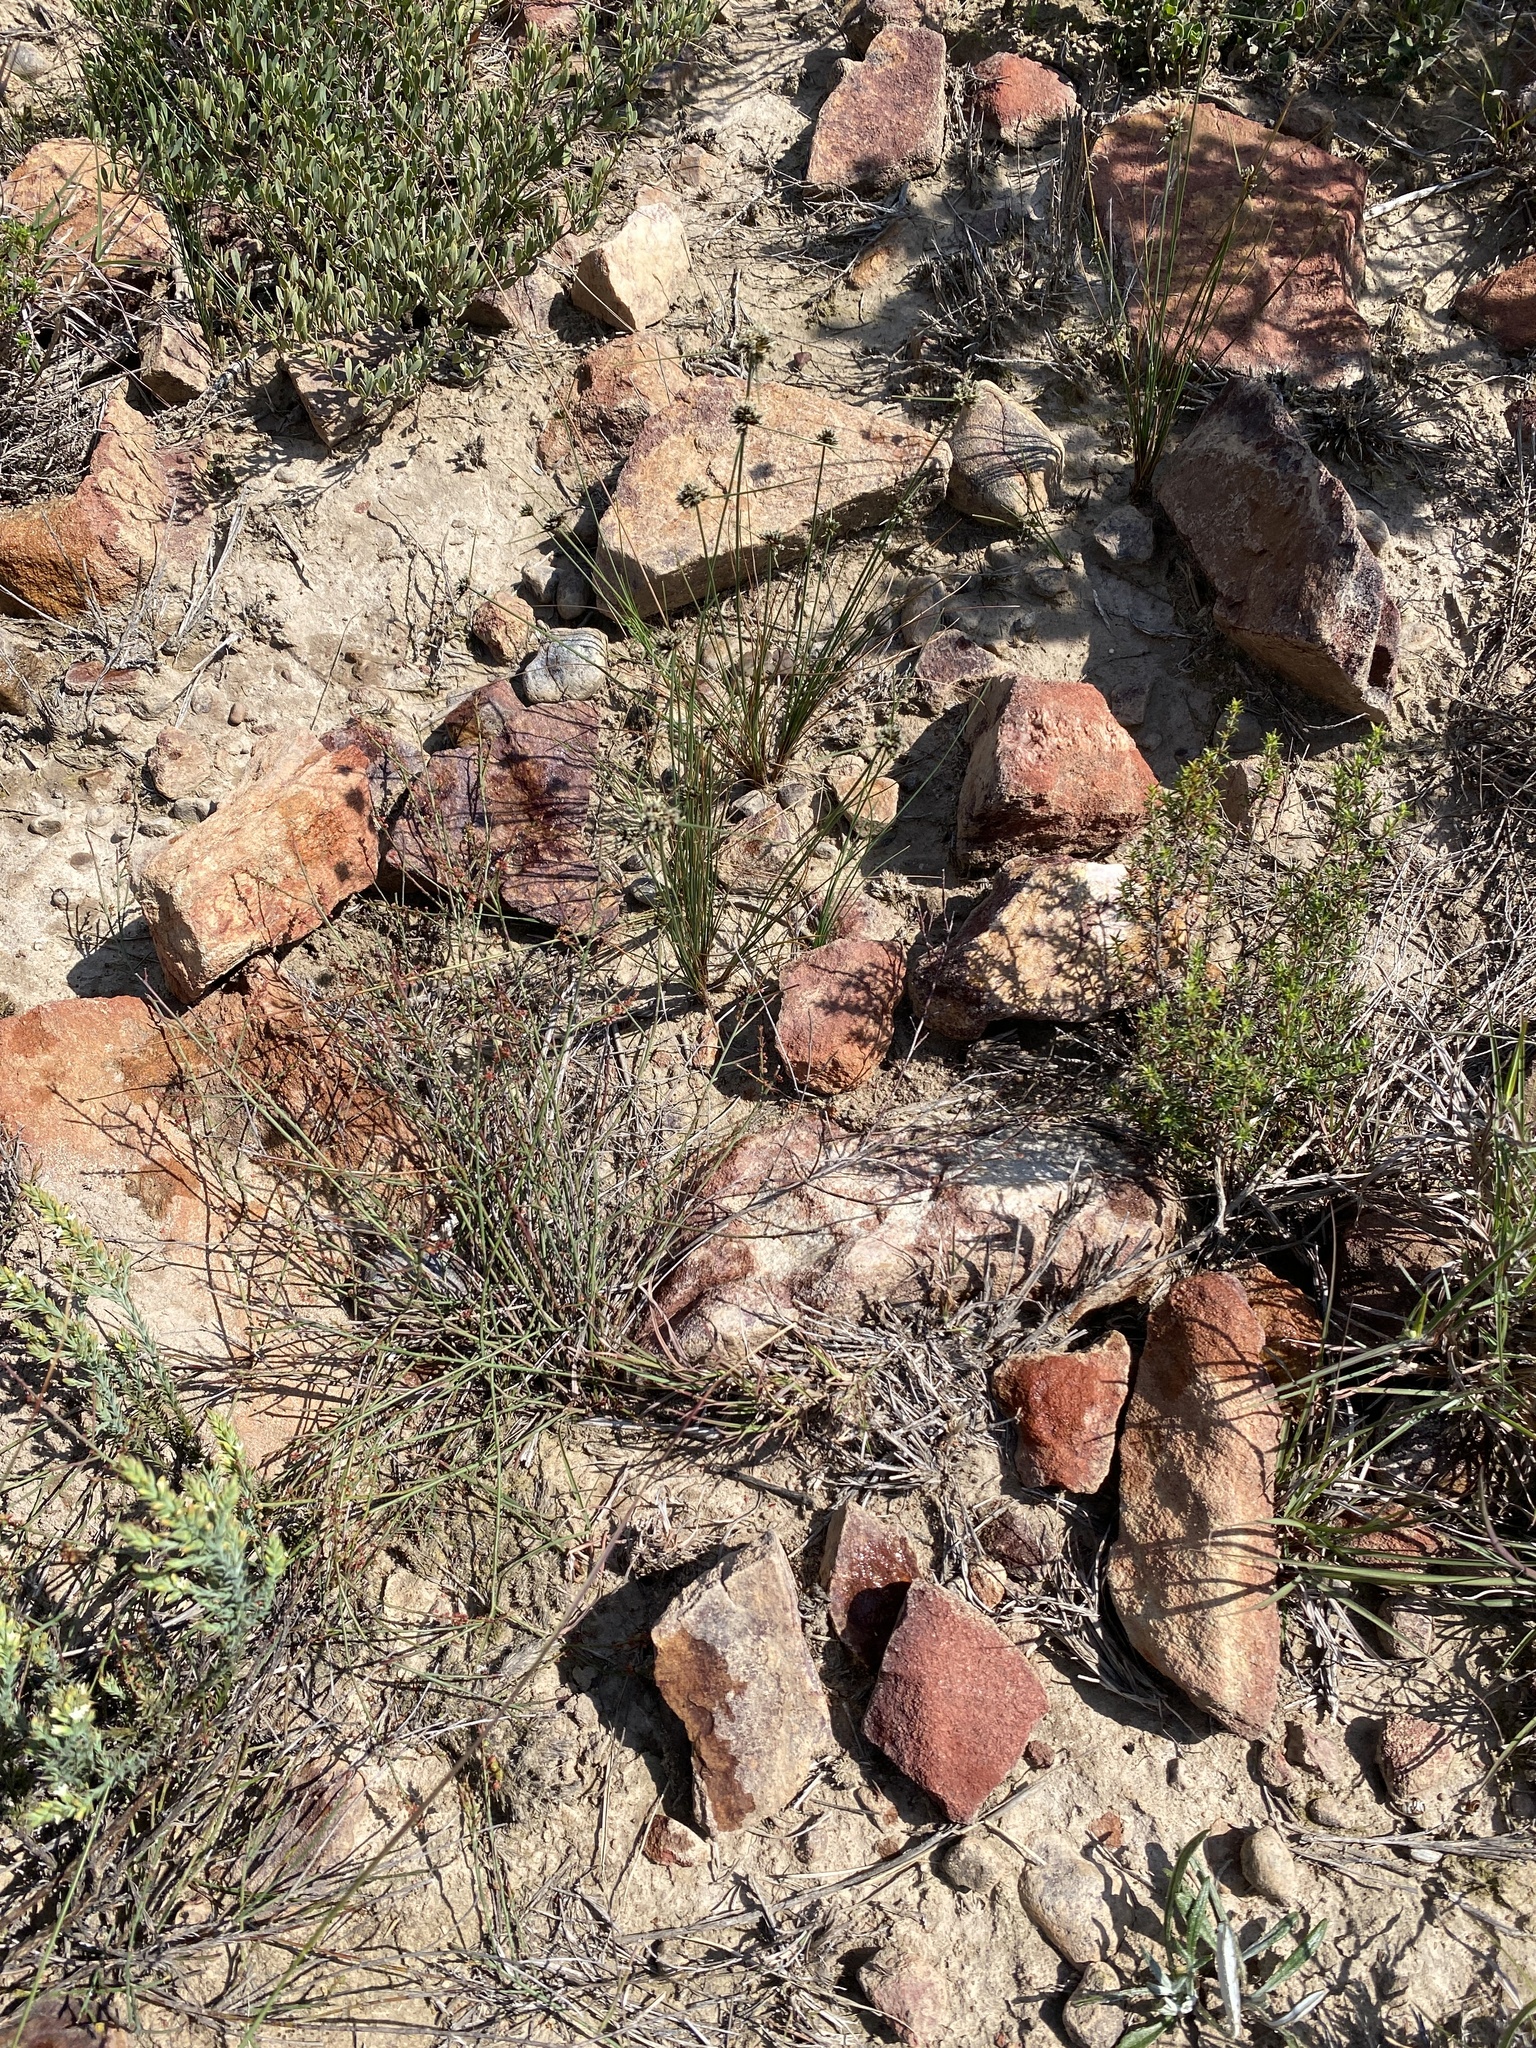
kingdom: Plantae
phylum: Tracheophyta
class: Liliopsida
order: Poales
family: Cyperaceae
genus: Ficinia
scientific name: Ficinia albicans
